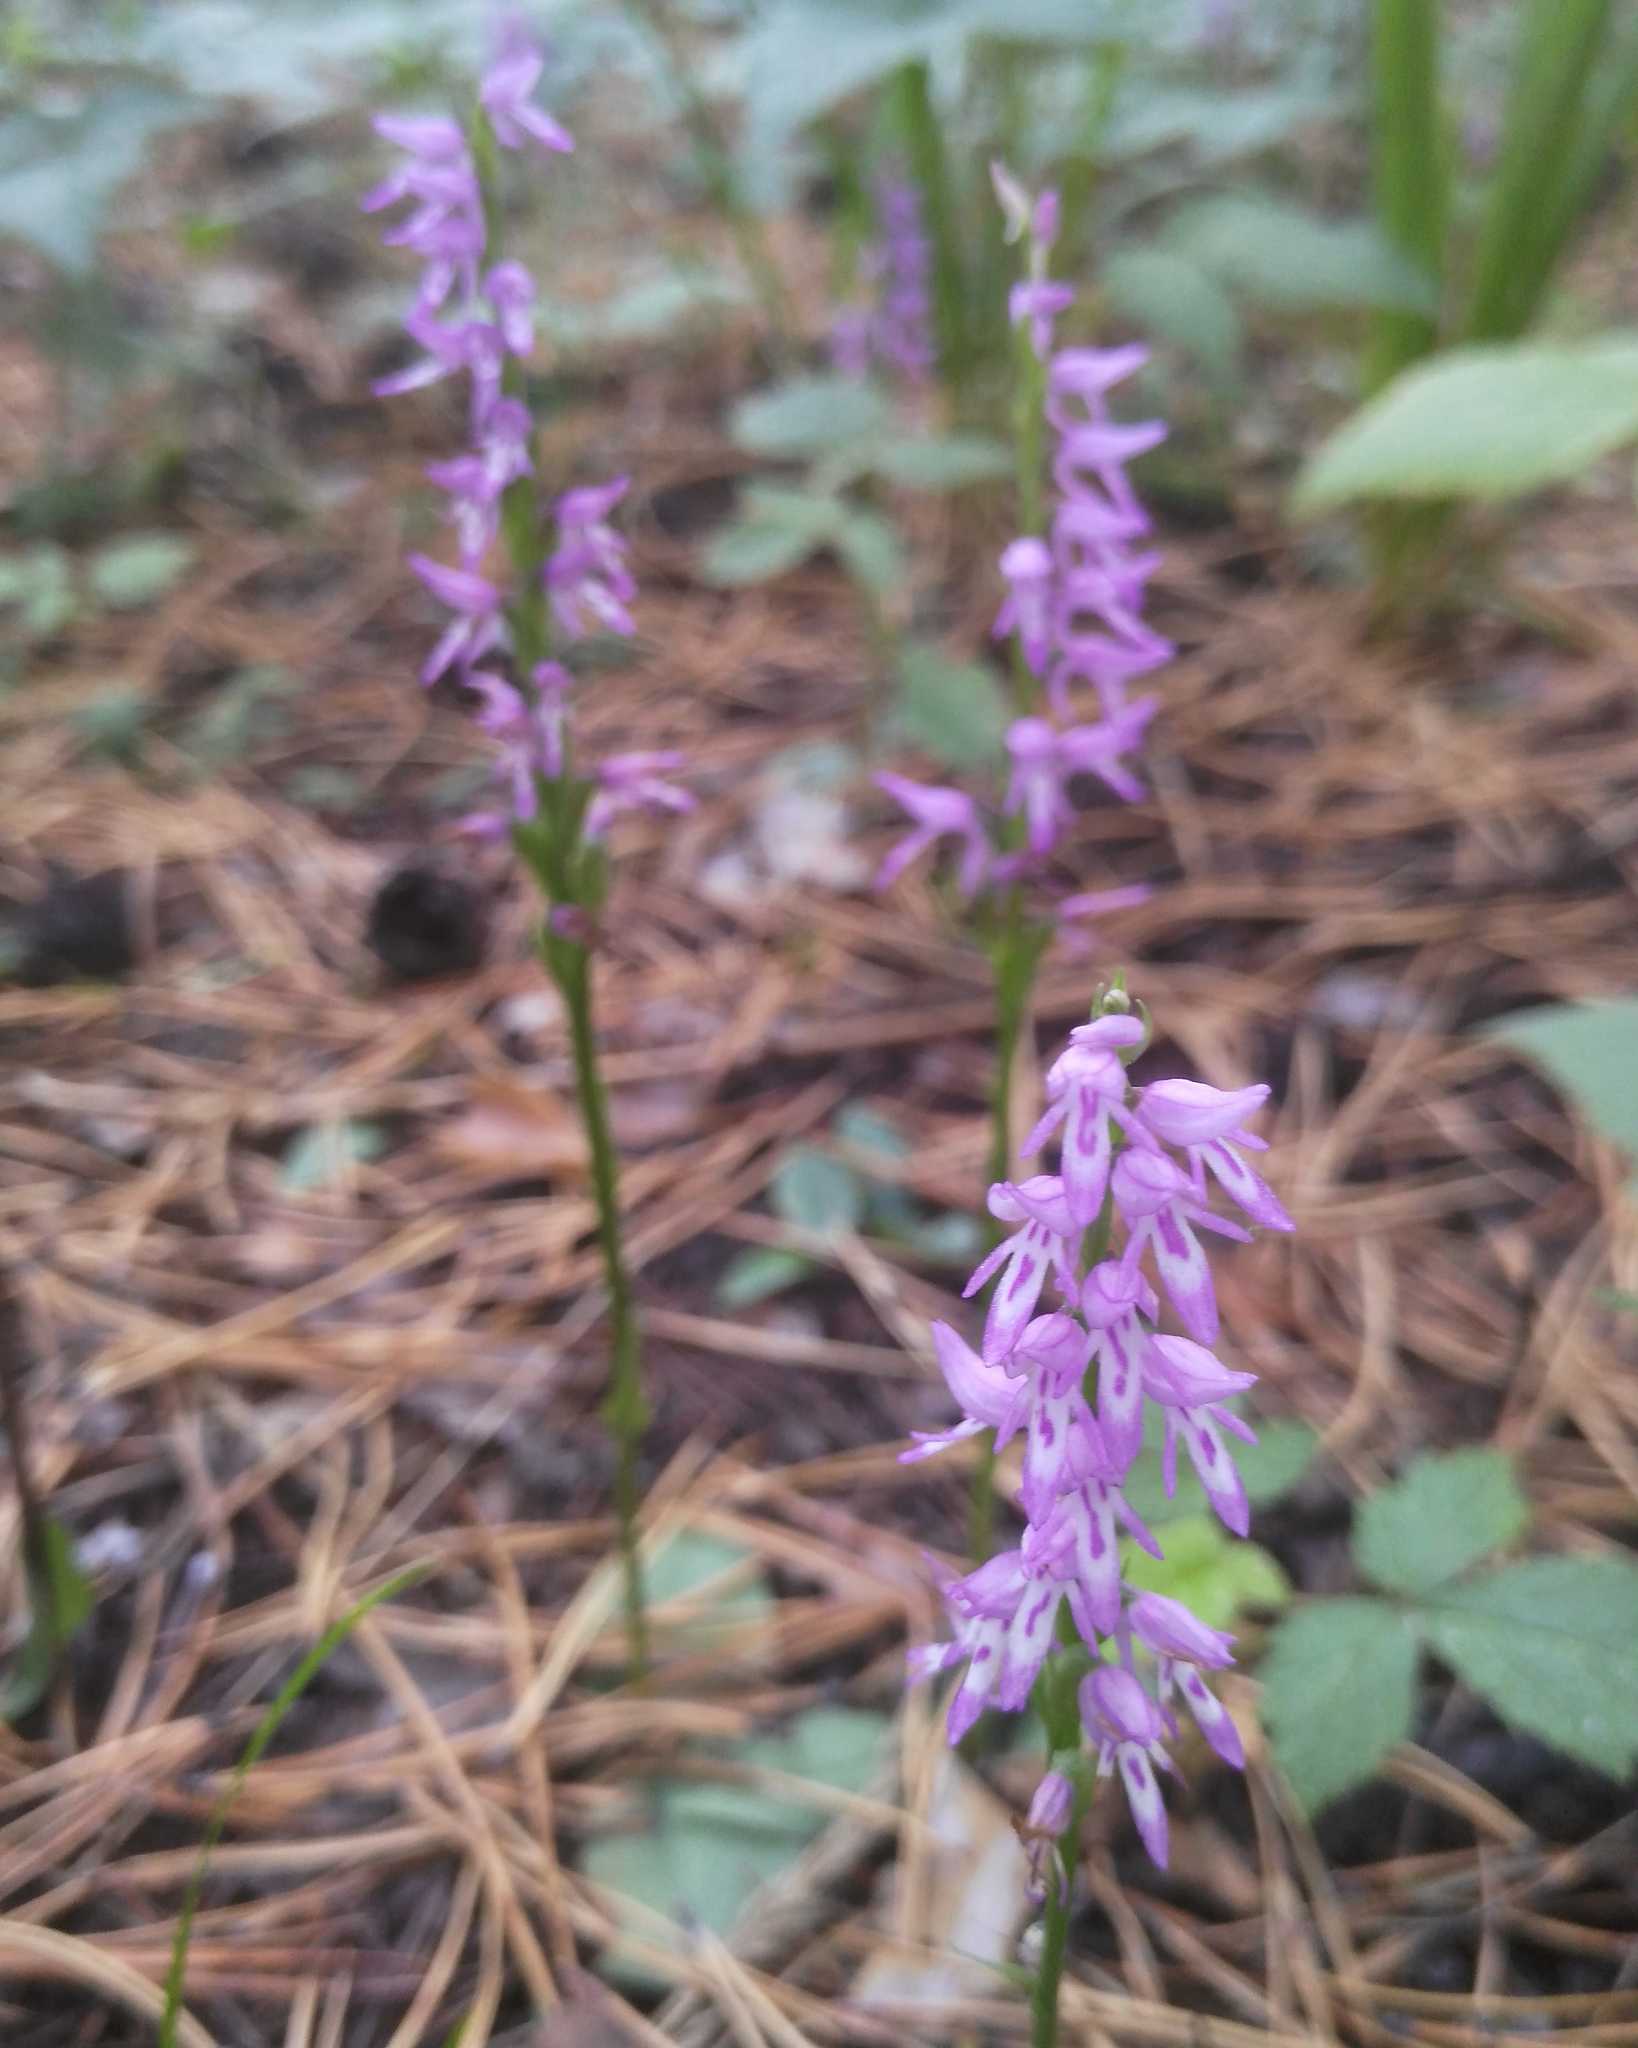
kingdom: Plantae
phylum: Tracheophyta
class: Liliopsida
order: Asparagales
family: Orchidaceae
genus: Hemipilia
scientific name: Hemipilia cucullata
